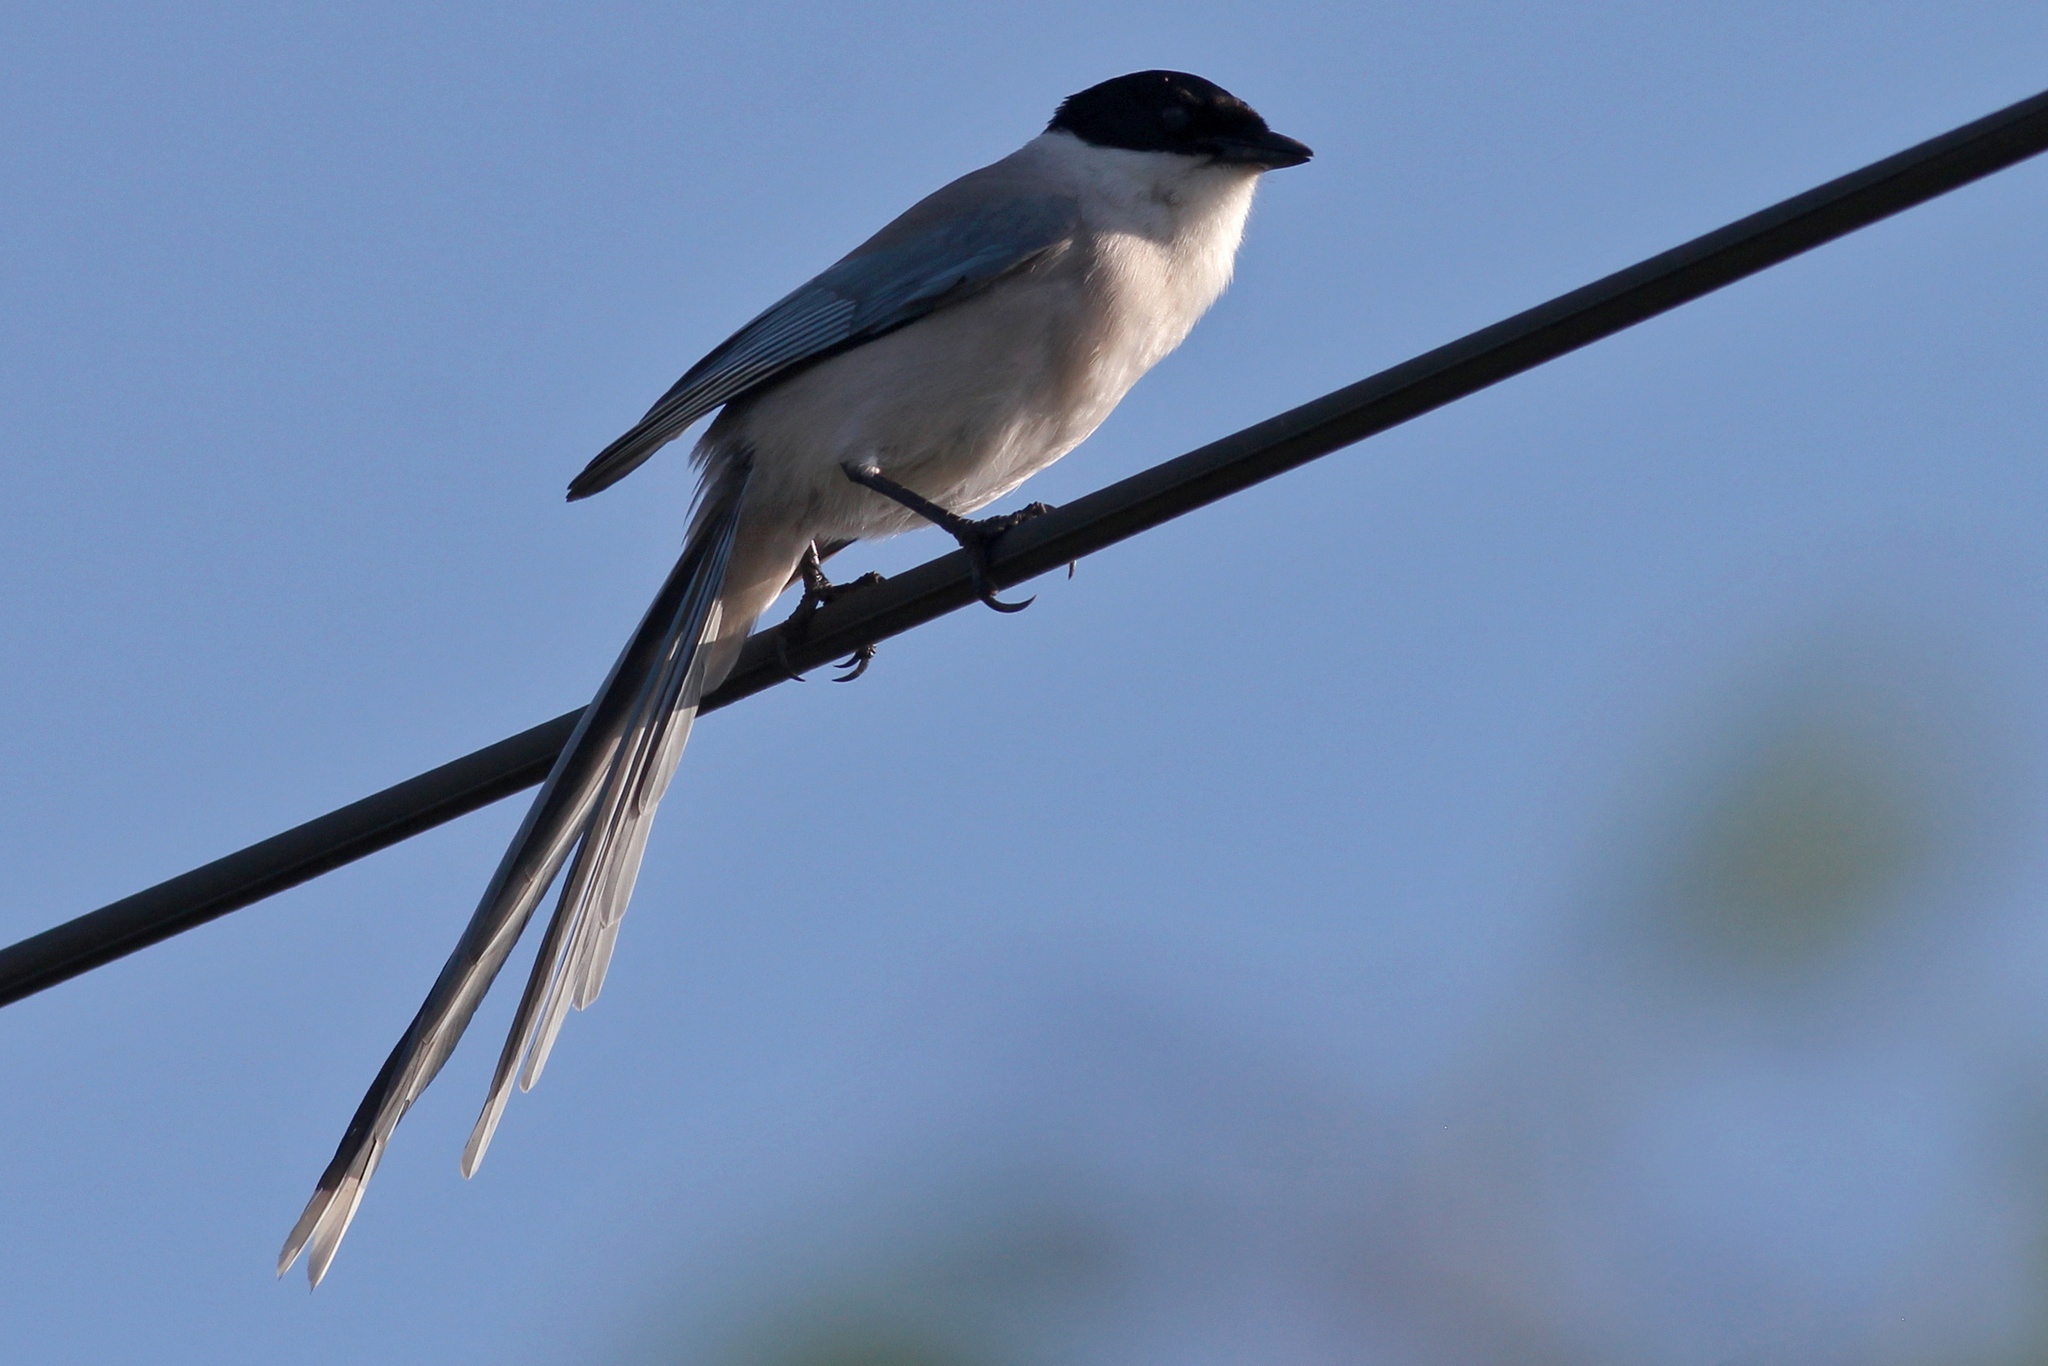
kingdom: Animalia
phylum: Chordata
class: Aves
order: Passeriformes
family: Corvidae
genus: Cyanopica
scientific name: Cyanopica cyanus
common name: Azure-winged magpie
